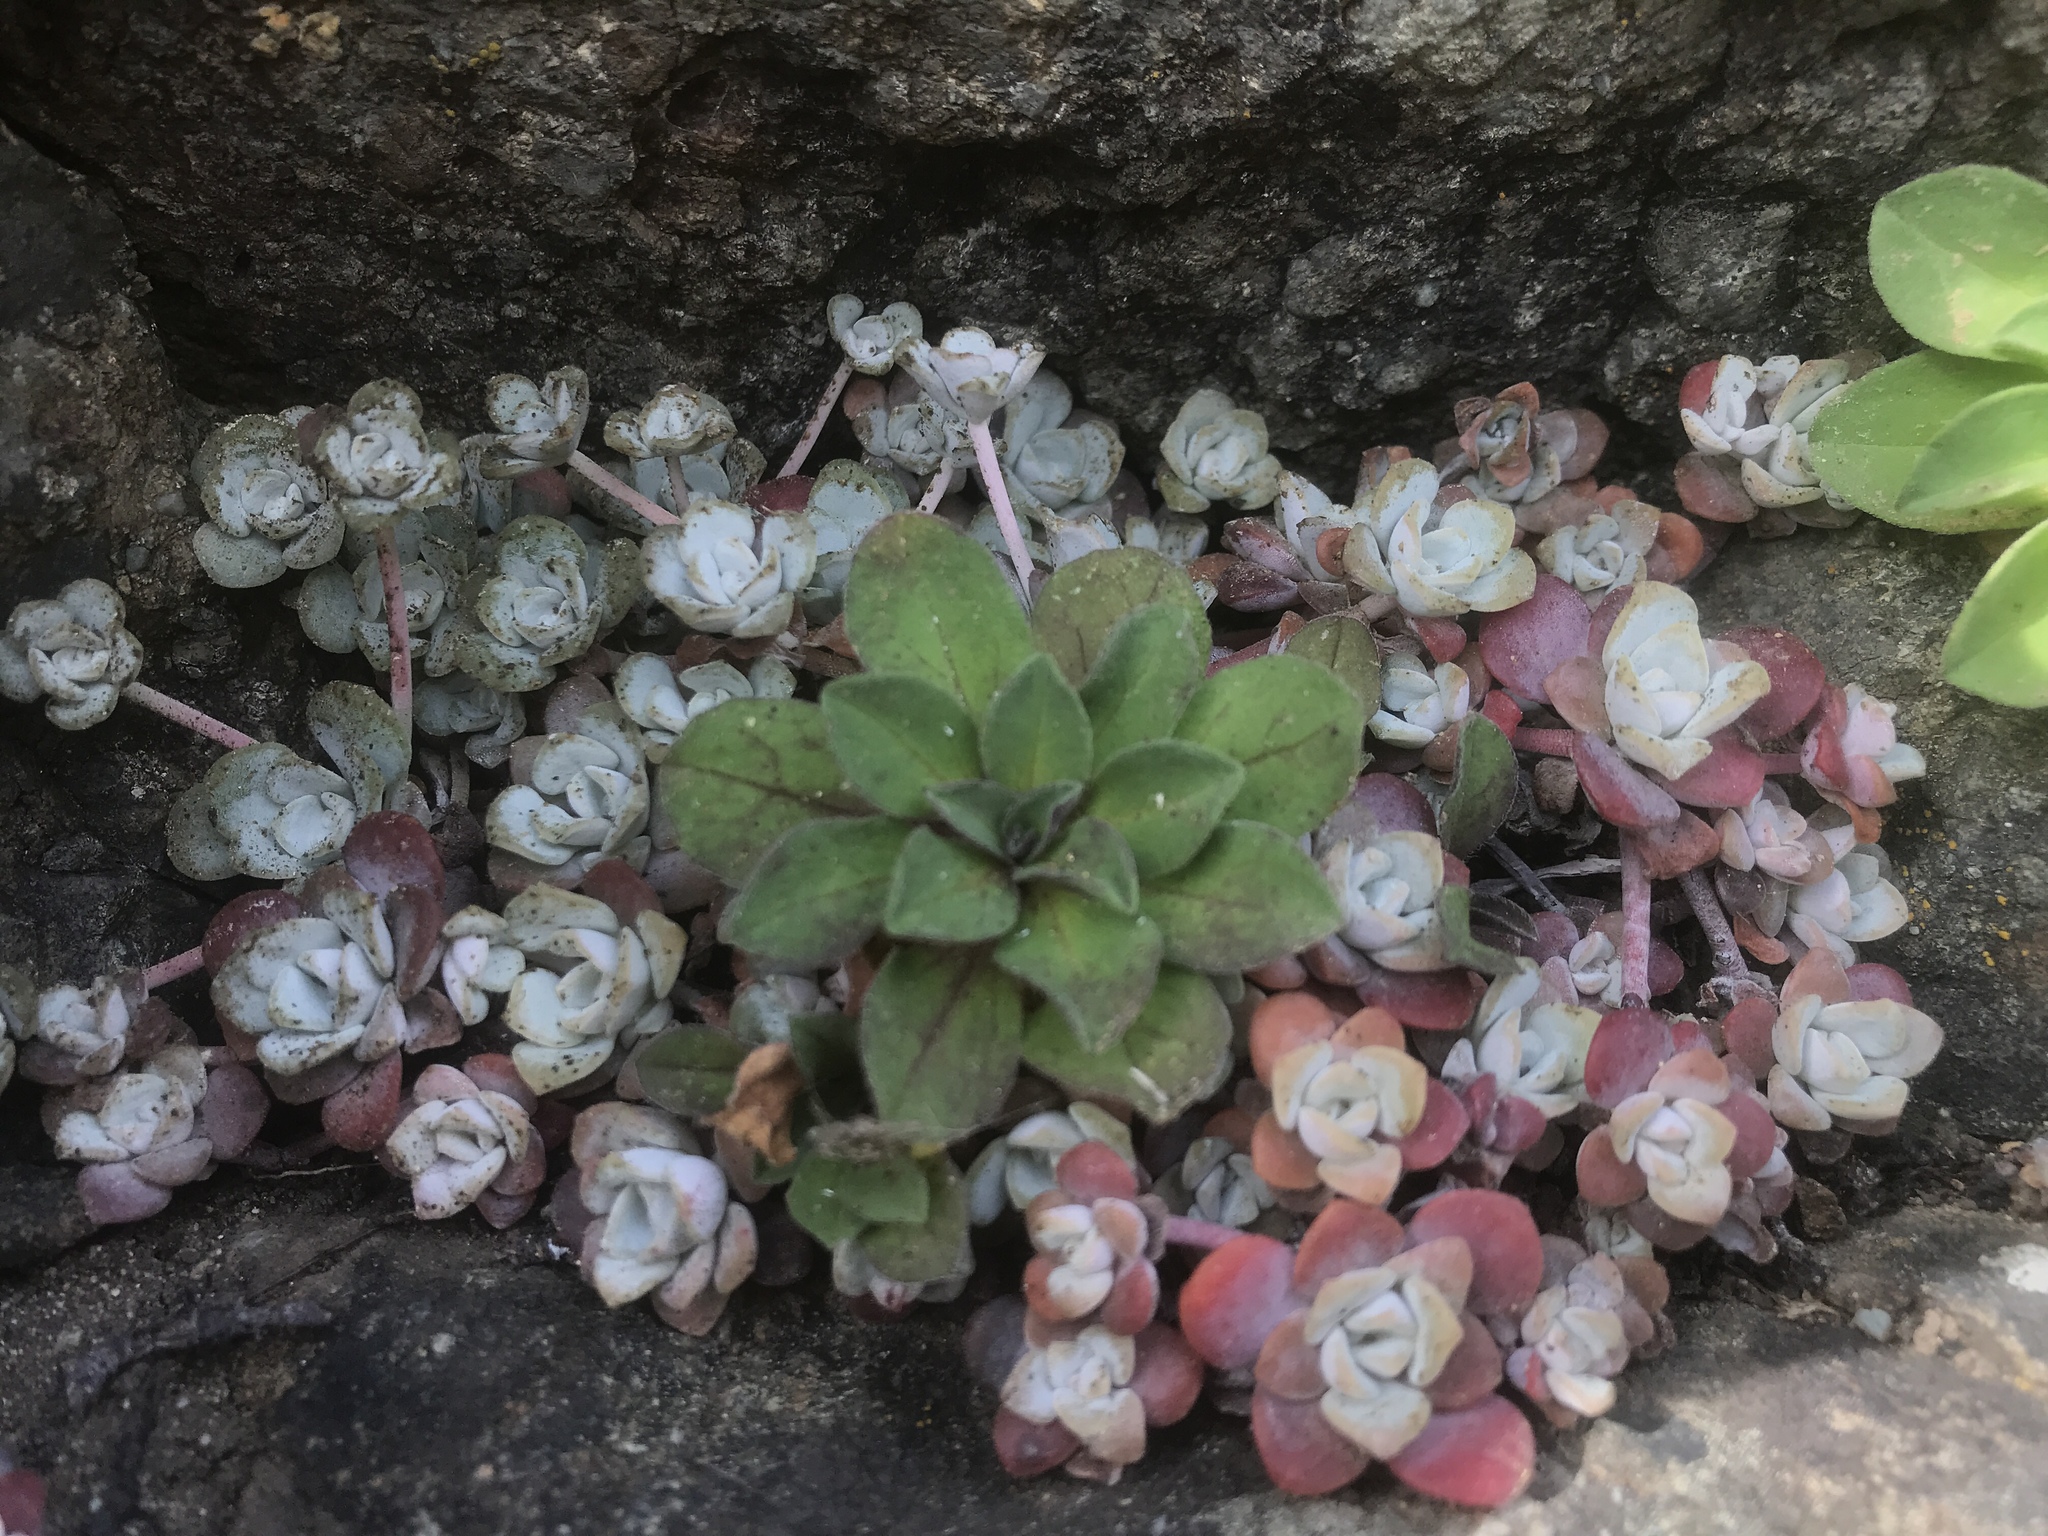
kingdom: Plantae
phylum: Tracheophyta
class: Magnoliopsida
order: Saxifragales
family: Crassulaceae
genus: Sedum
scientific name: Sedum spathulifolium
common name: Colorado stonecrop
